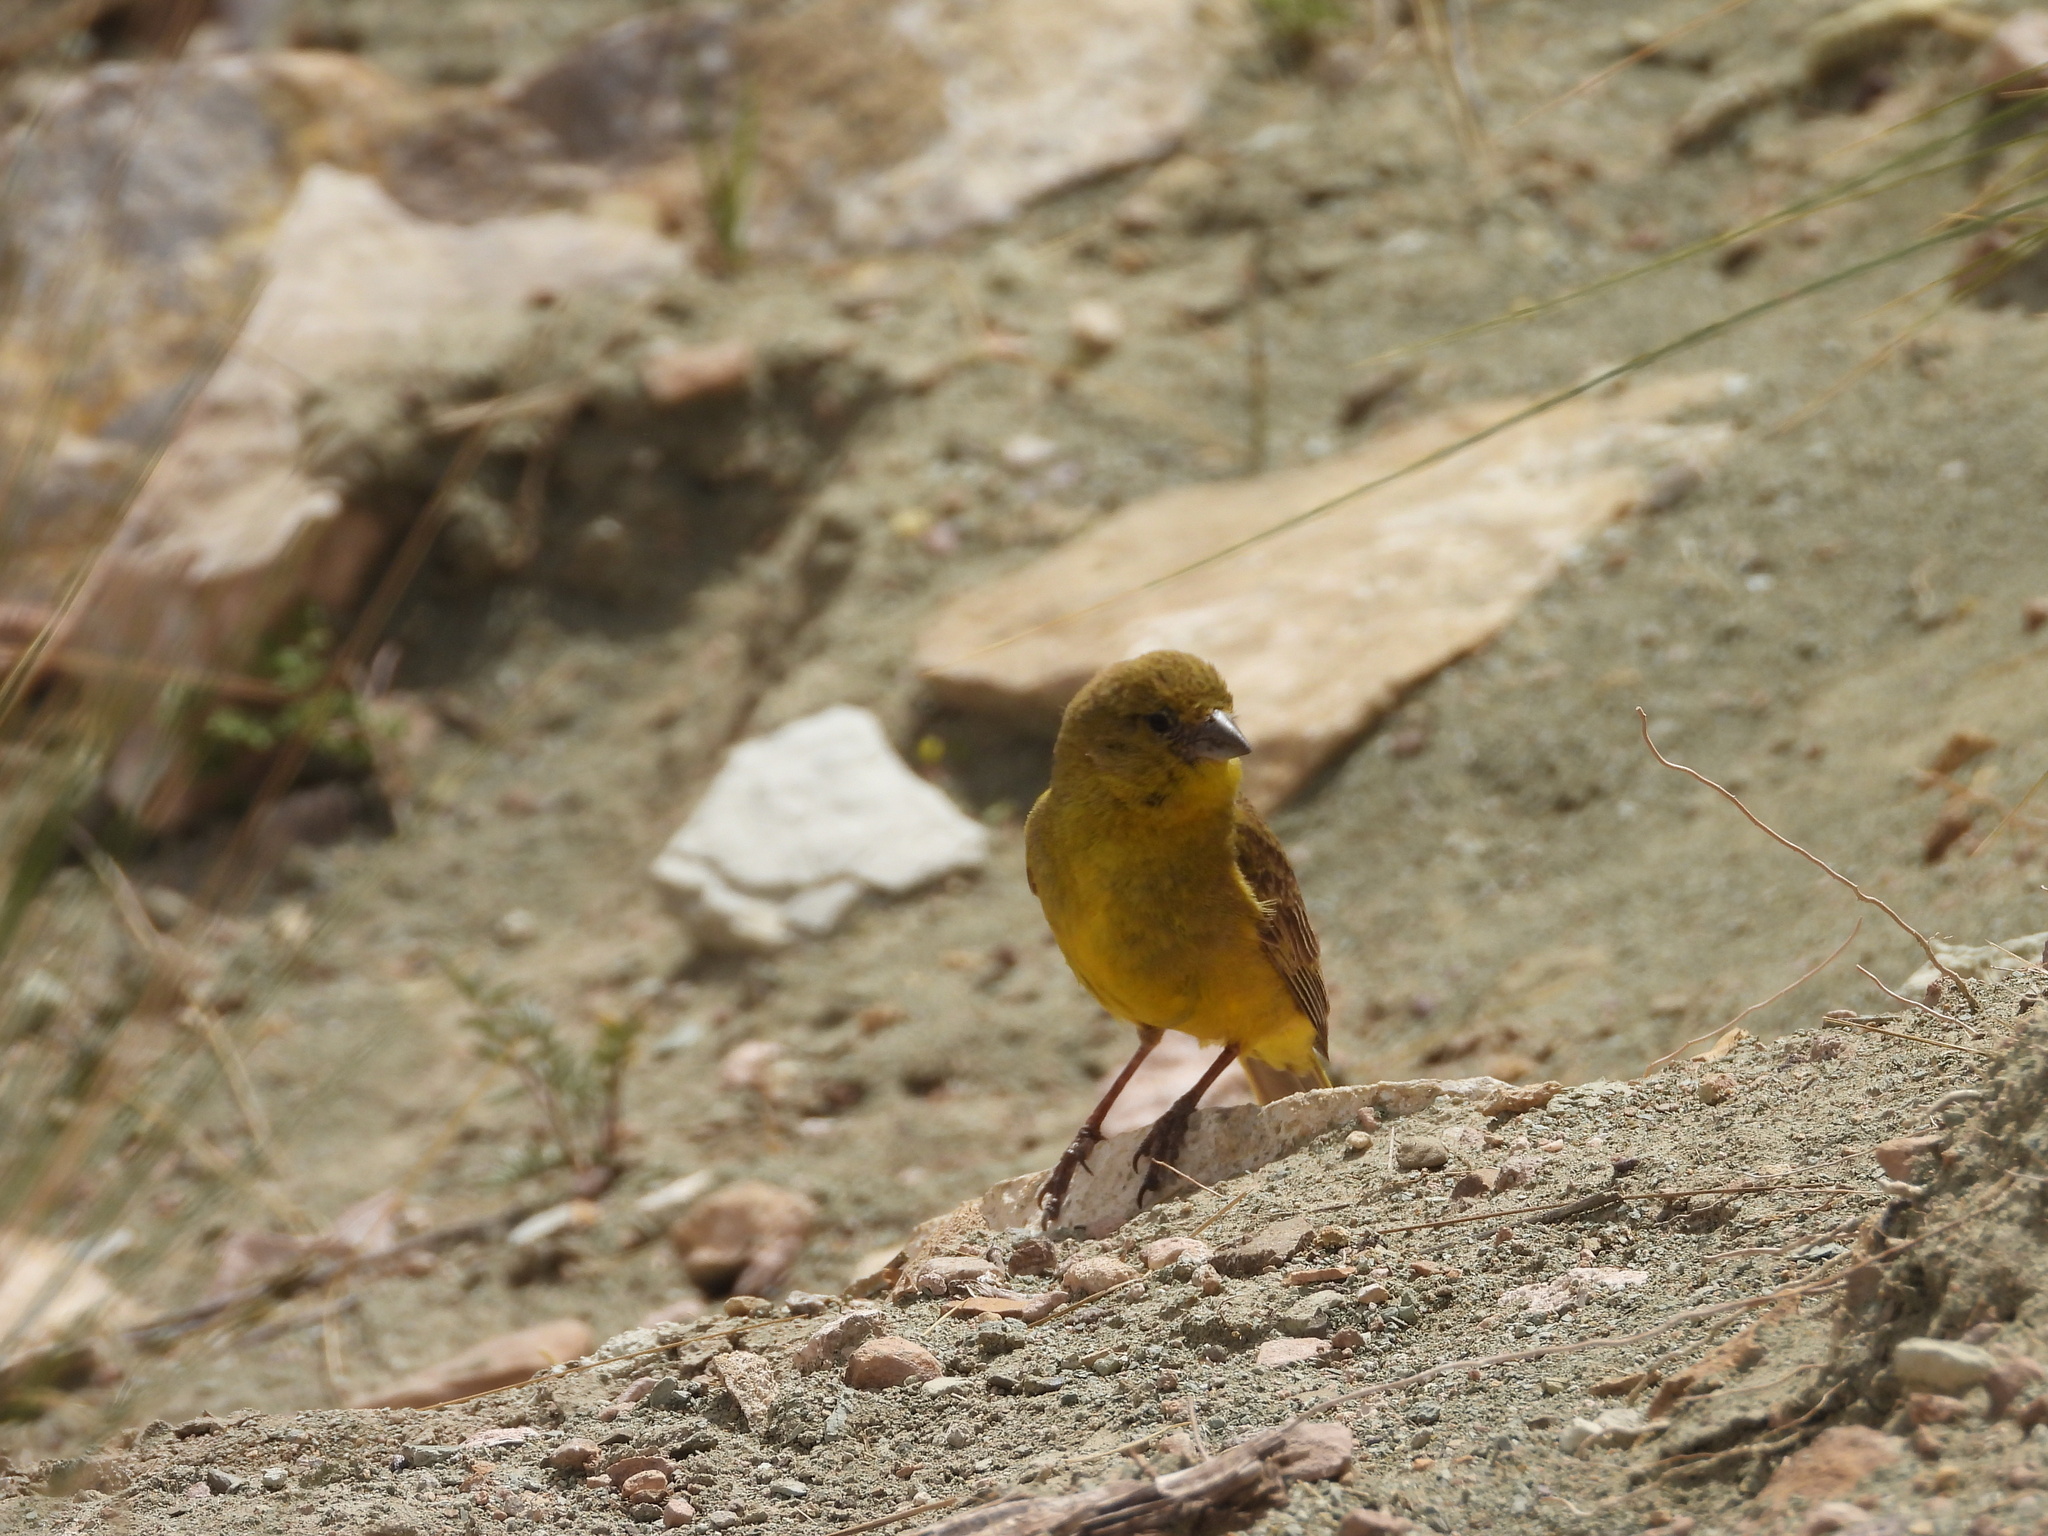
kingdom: Animalia
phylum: Chordata
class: Aves
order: Passeriformes
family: Thraupidae
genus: Sicalis
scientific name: Sicalis olivascens
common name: Greenish yellow finch
